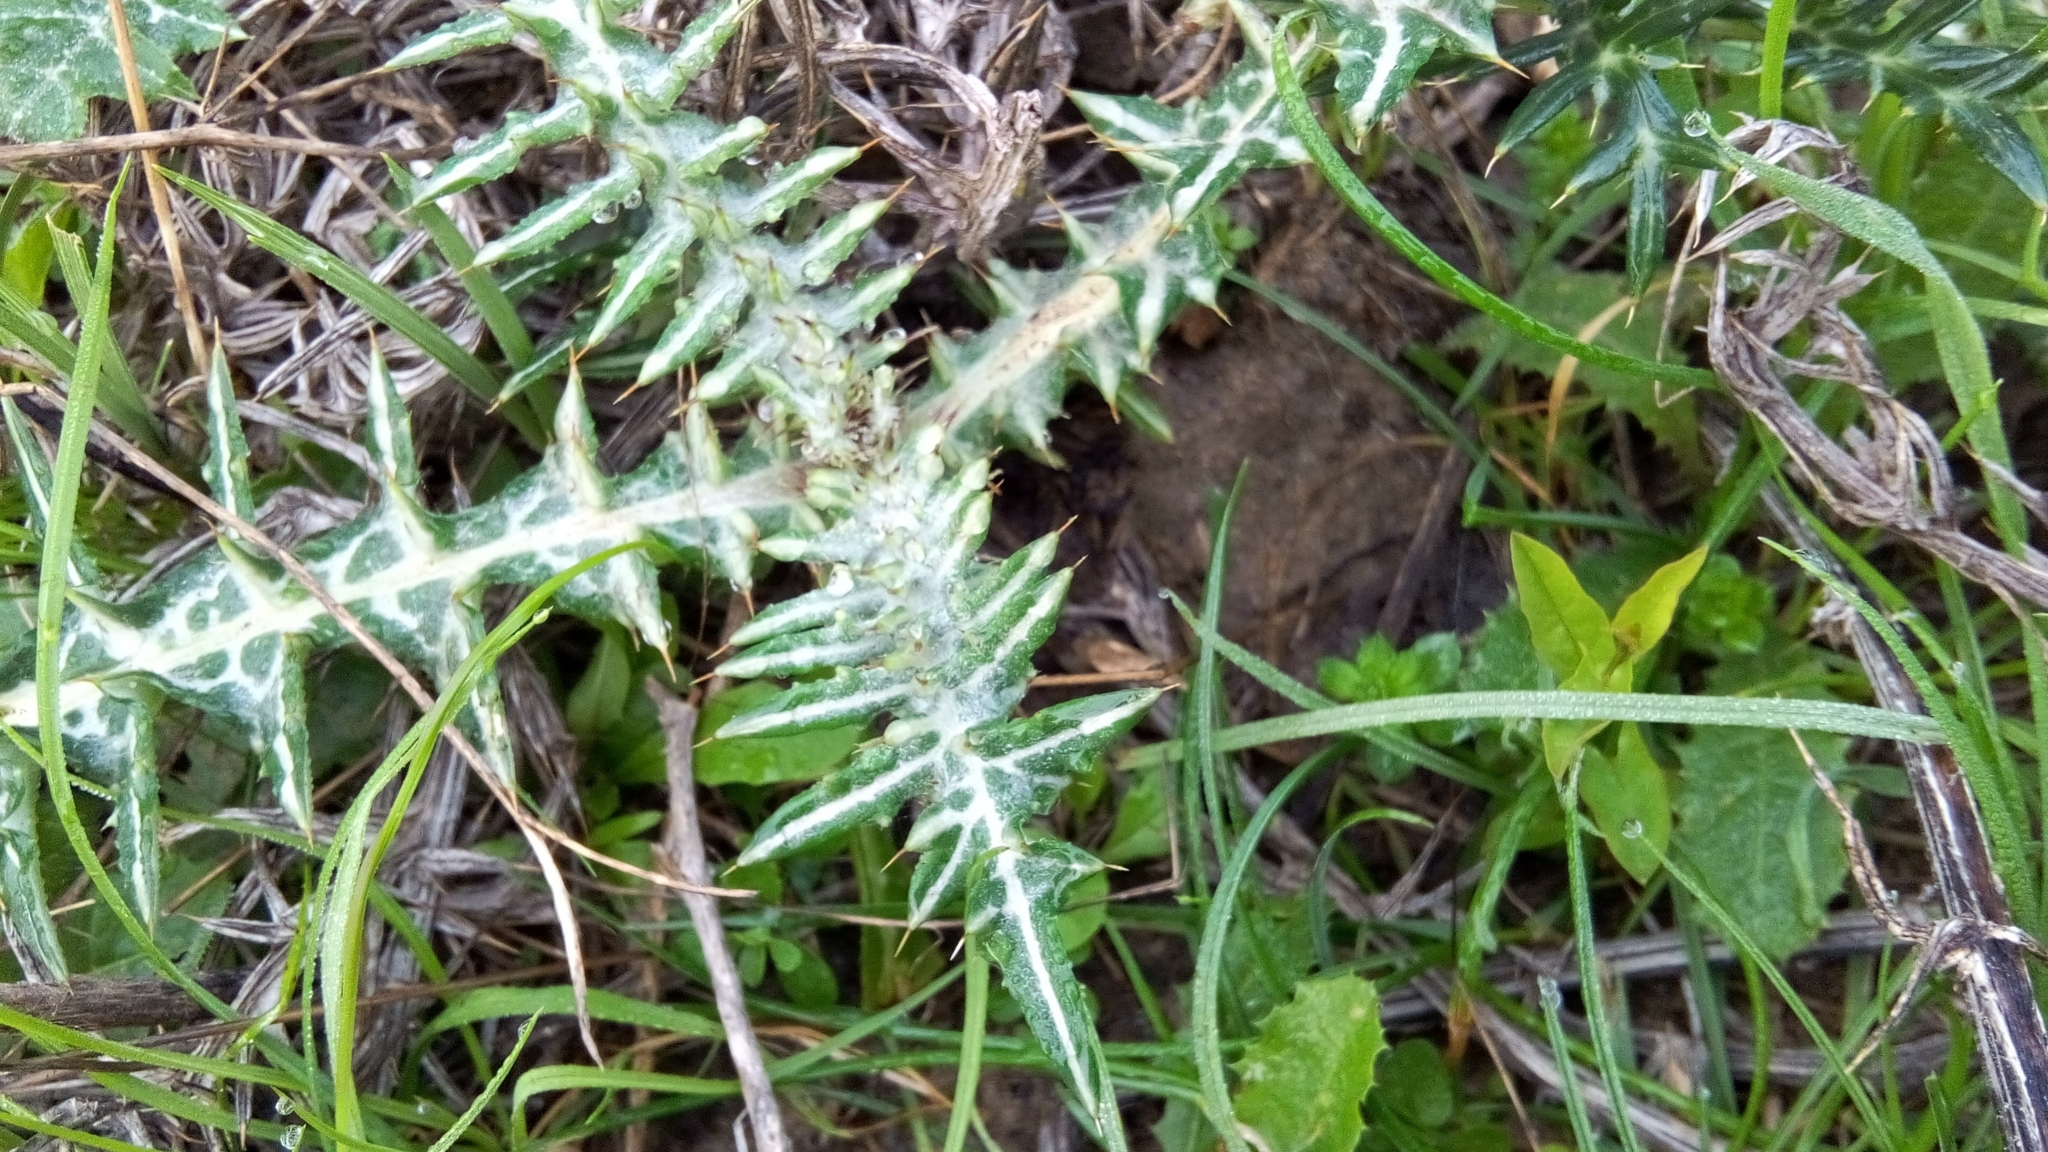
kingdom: Plantae
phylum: Tracheophyta
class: Magnoliopsida
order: Asterales
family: Asteraceae
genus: Galactites
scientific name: Galactites tomentosa
